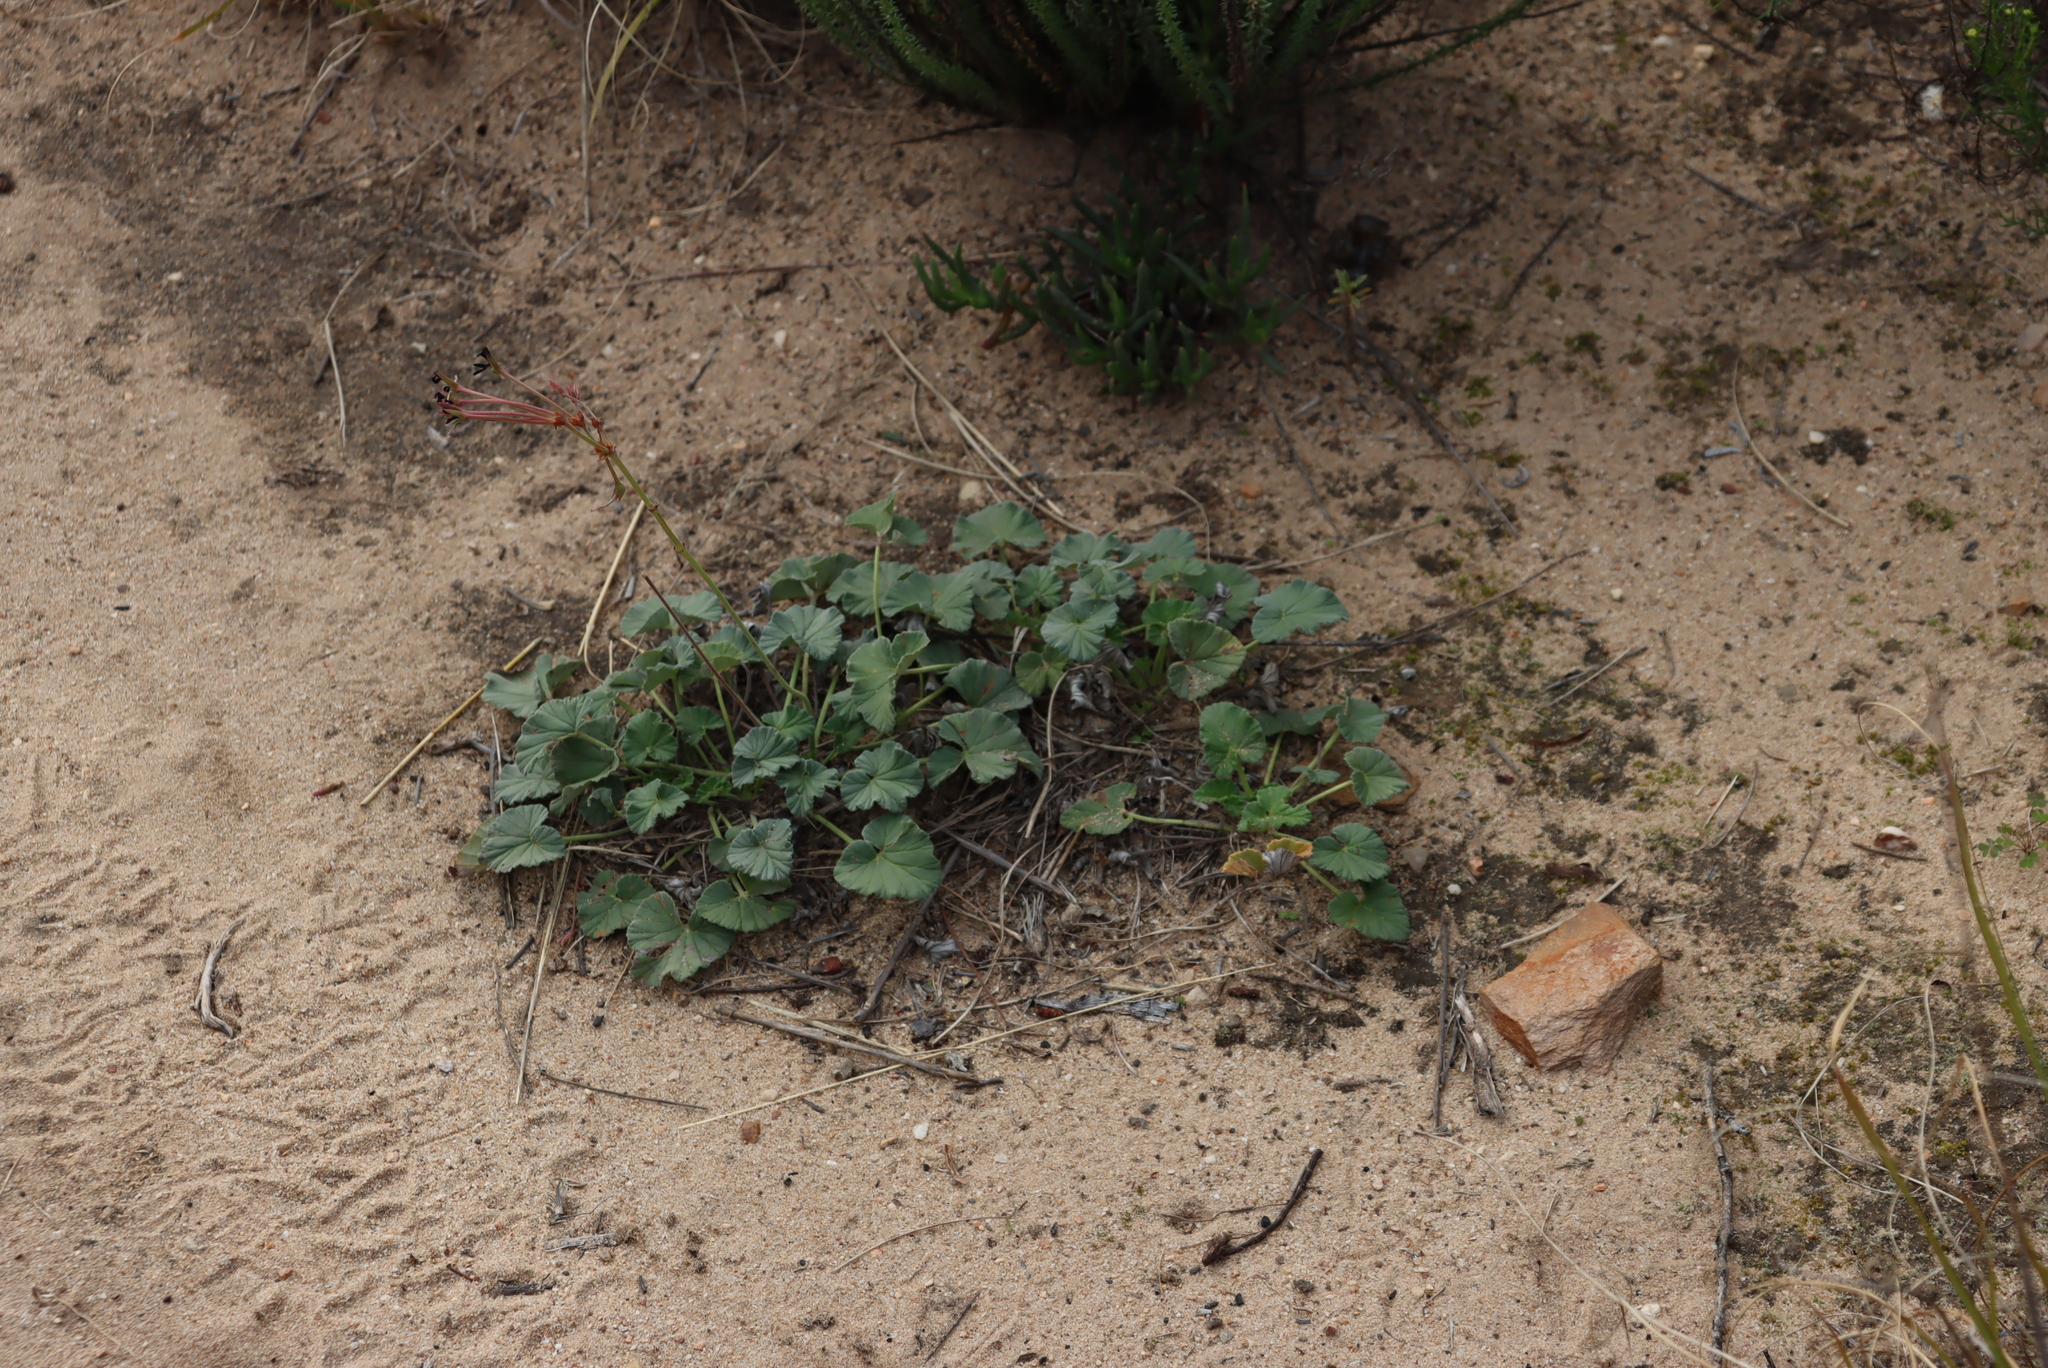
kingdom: Plantae
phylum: Tracheophyta
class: Magnoliopsida
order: Geraniales
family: Geraniaceae
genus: Pelargonium
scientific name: Pelargonium sidoides
